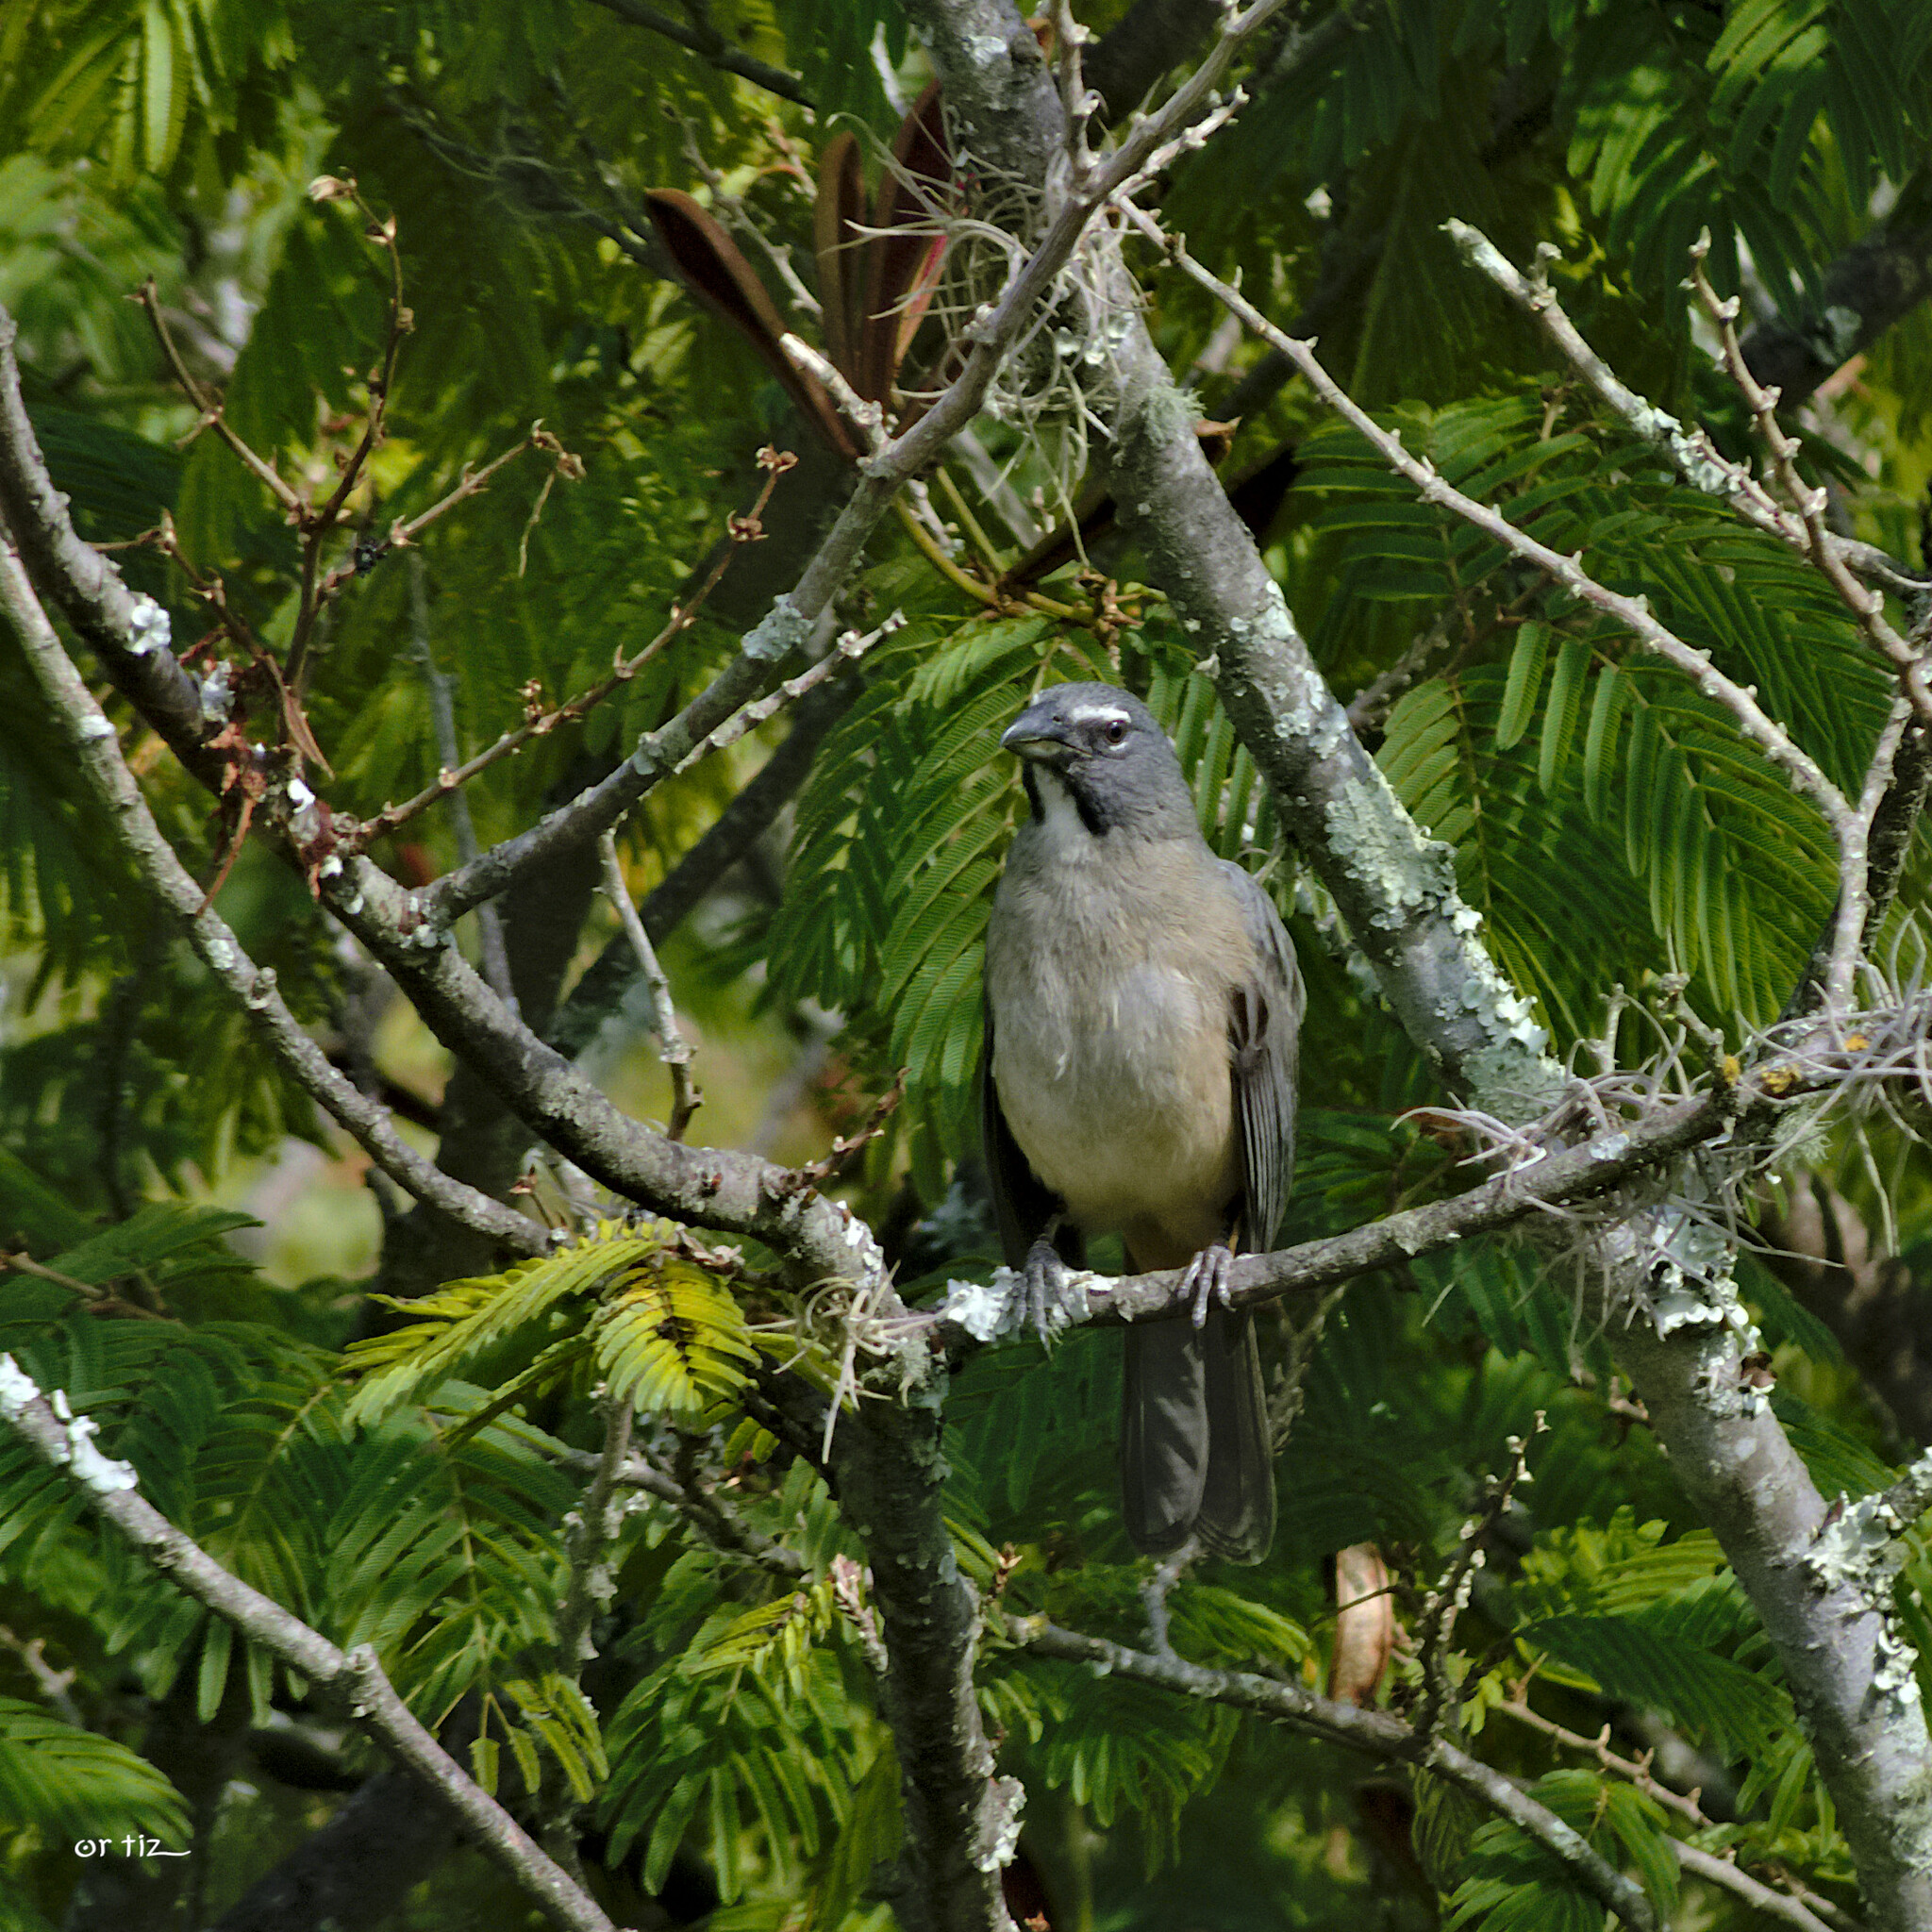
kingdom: Animalia
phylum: Chordata
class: Aves
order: Passeriformes
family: Thraupidae
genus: Saltator
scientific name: Saltator olivascens
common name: Caribbean grey saltator
